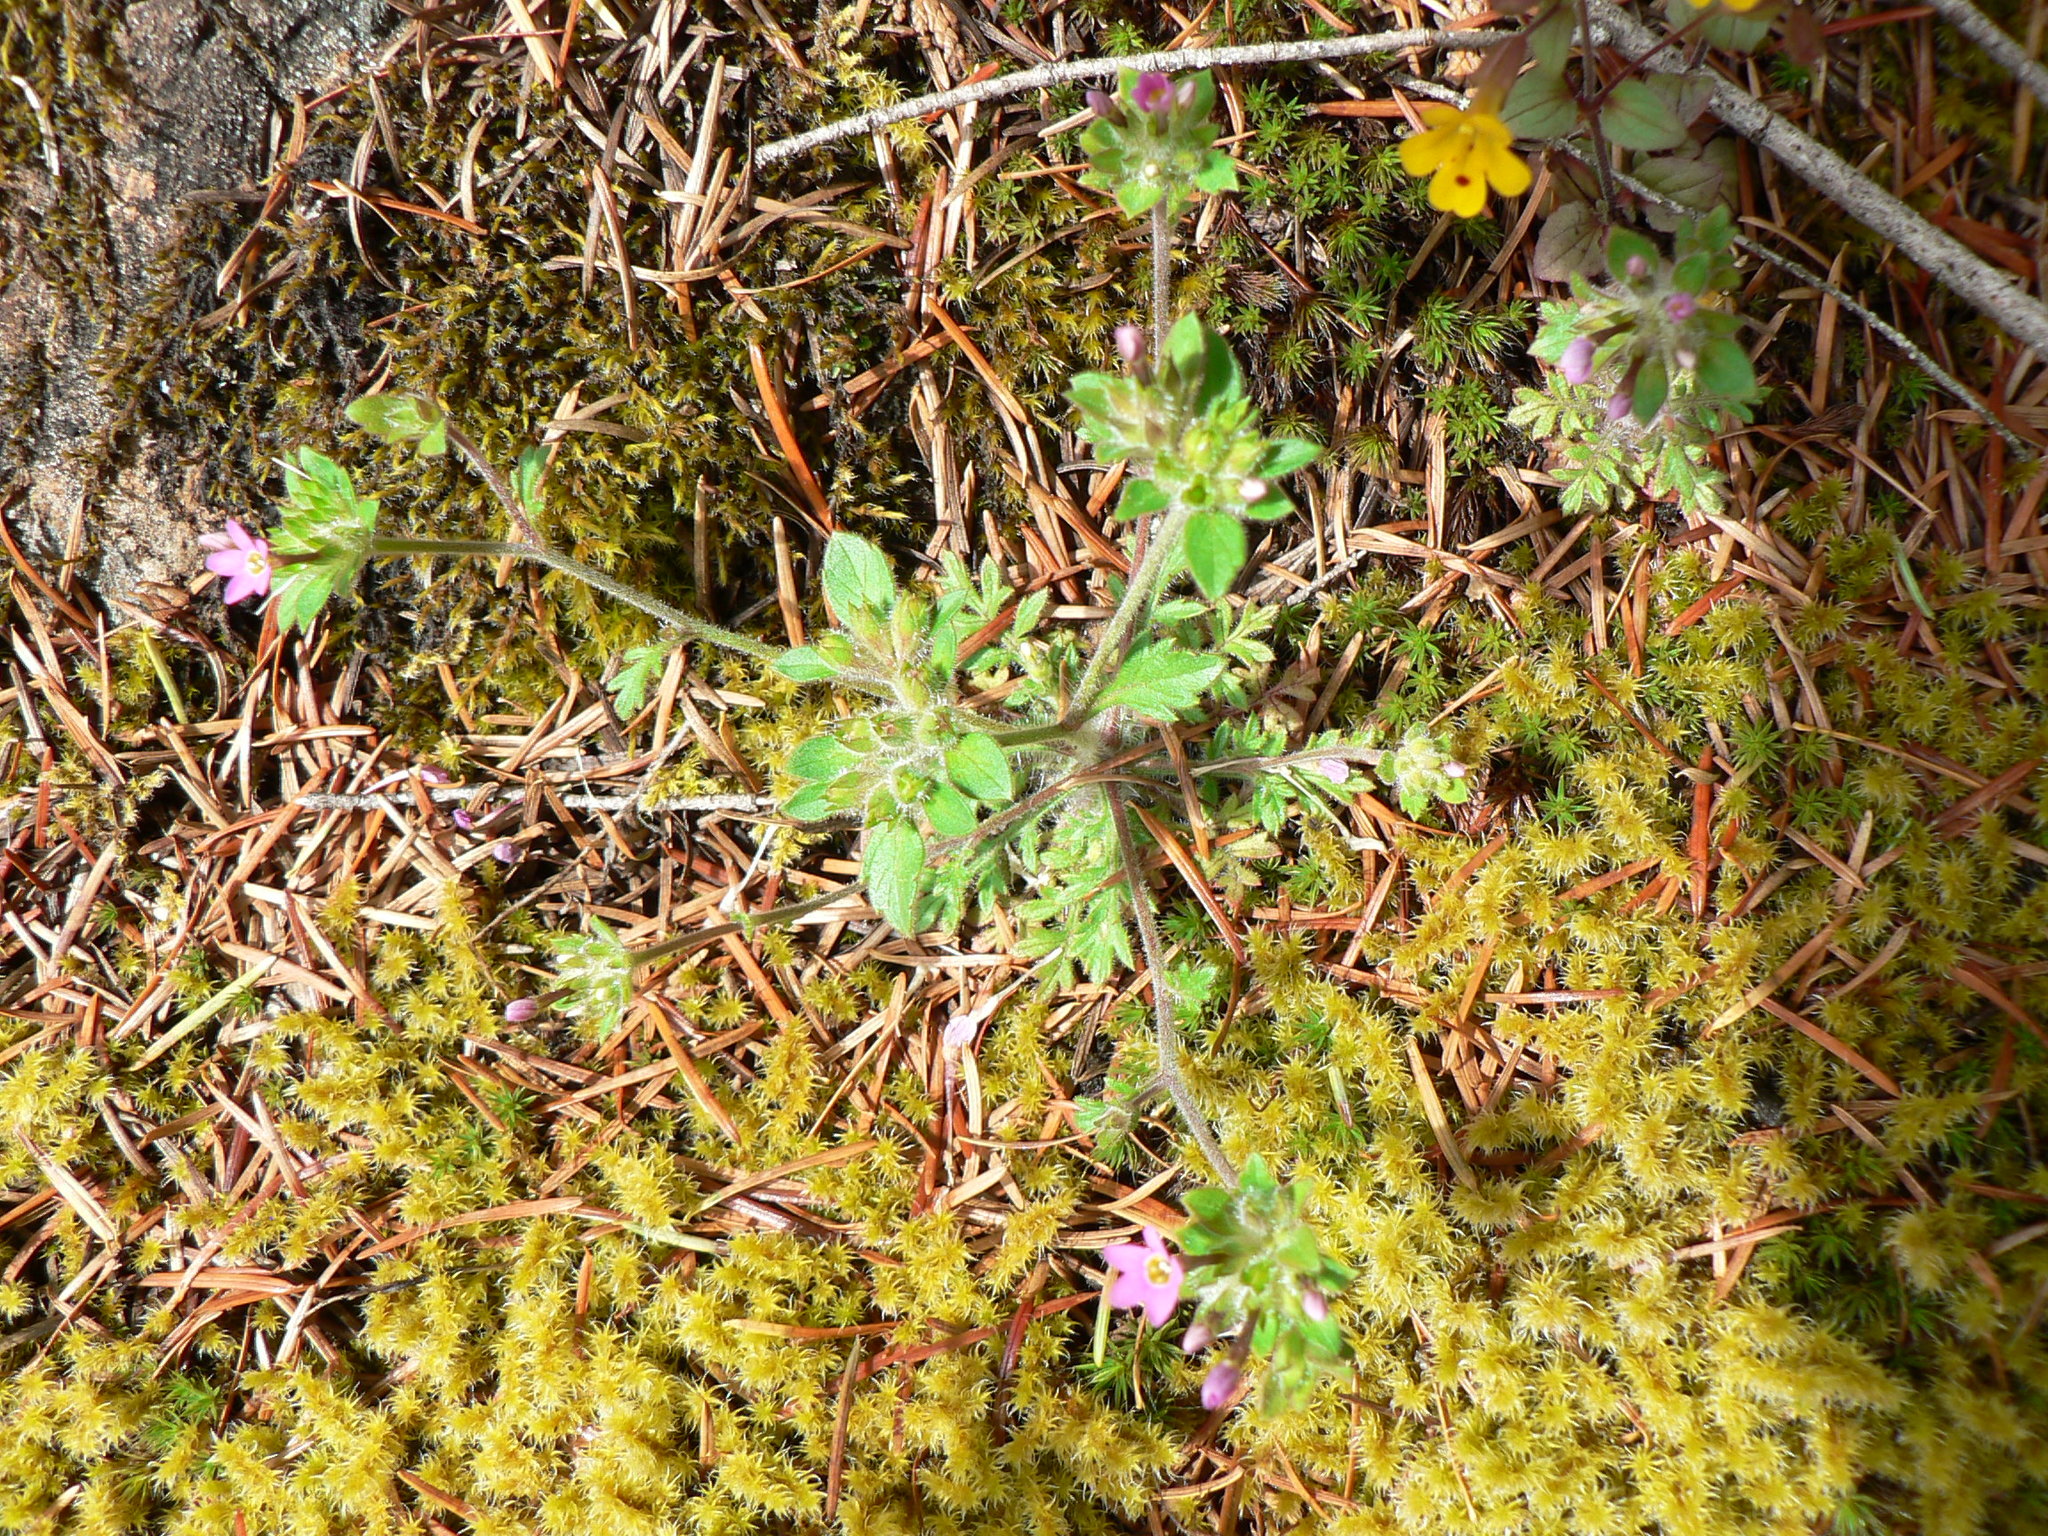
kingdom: Plantae
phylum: Tracheophyta
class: Magnoliopsida
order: Ericales
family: Polemoniaceae
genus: Collomia
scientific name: Collomia heterophylla
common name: Variable-leaved collomia
